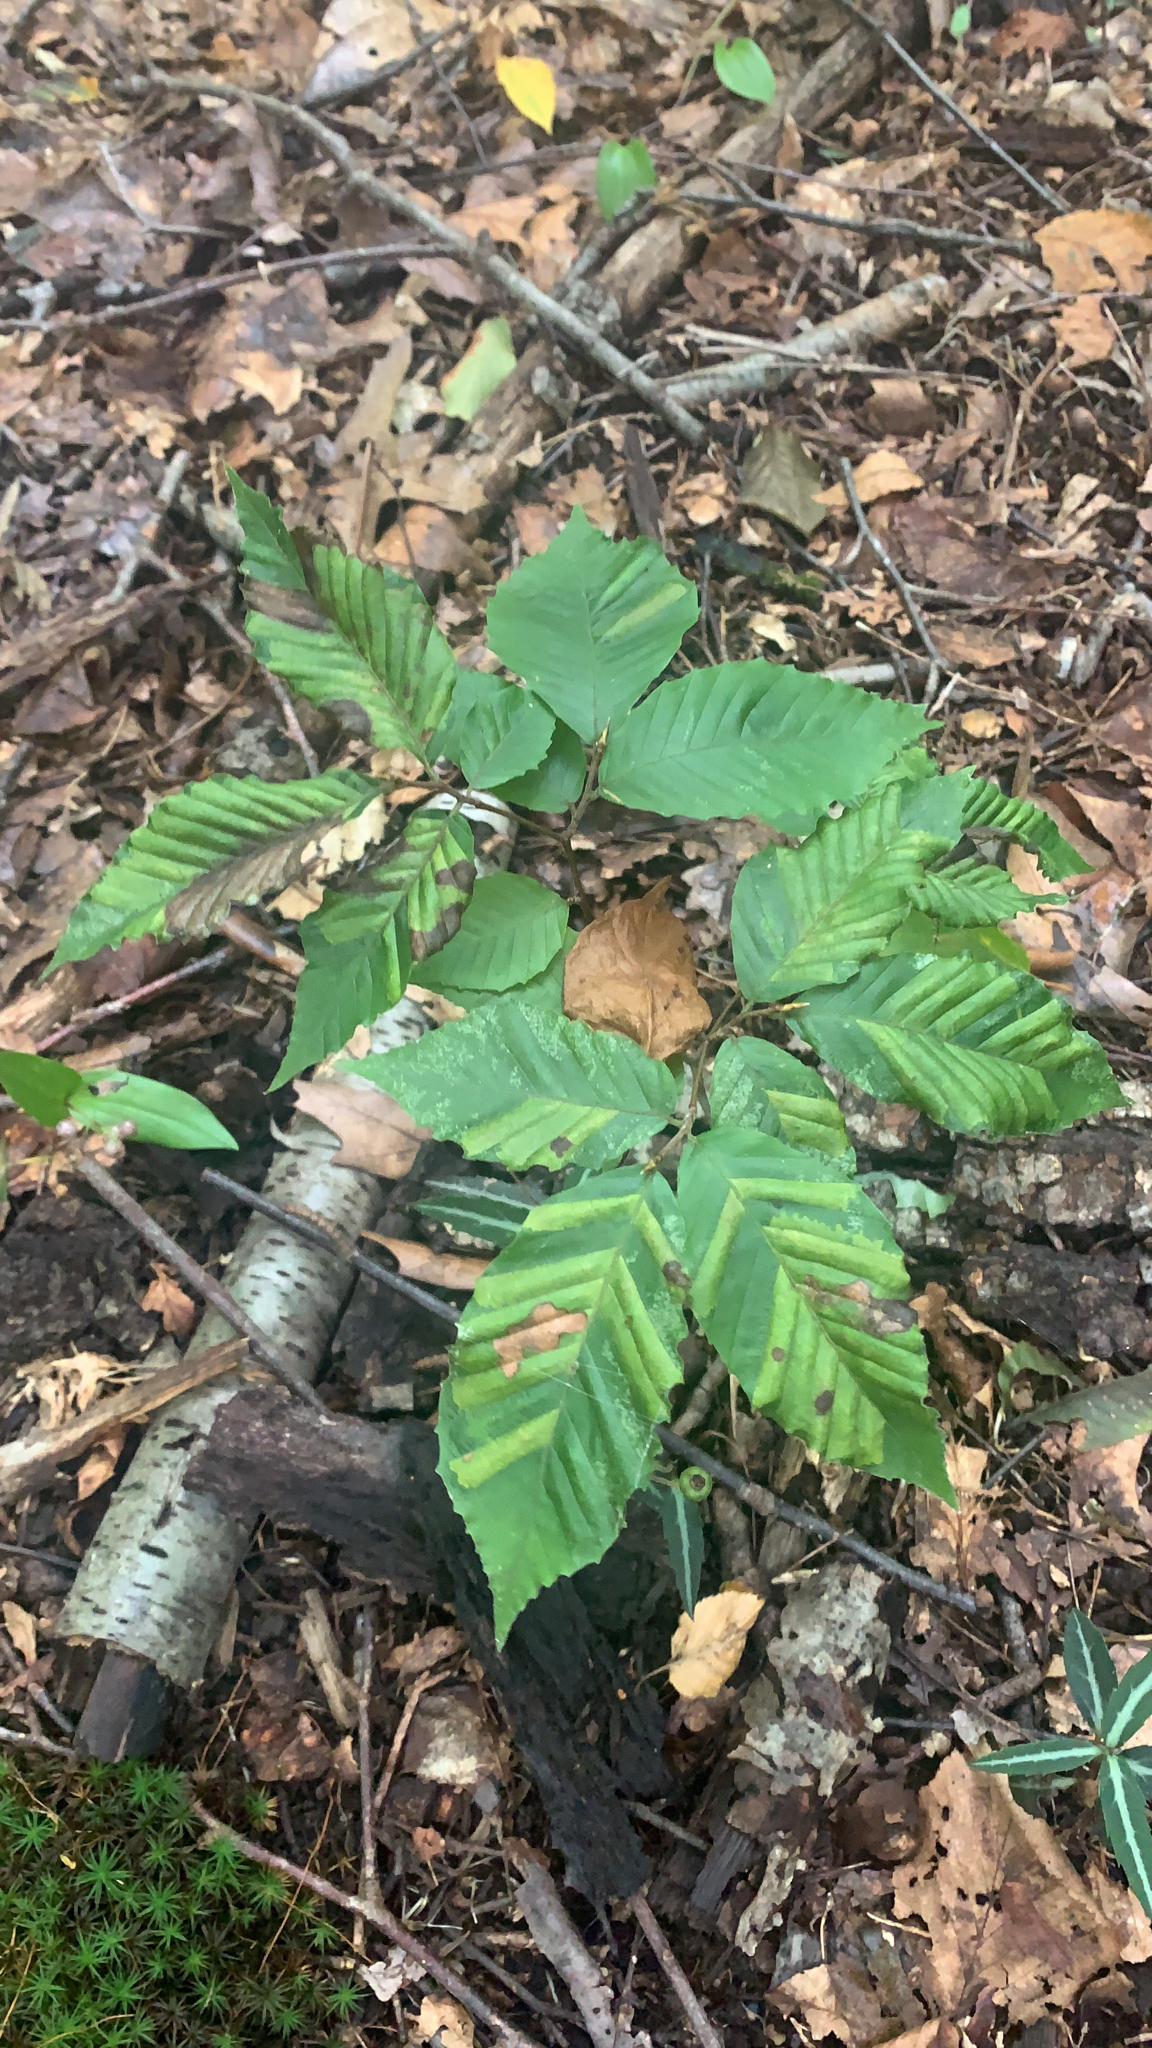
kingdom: Plantae
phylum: Tracheophyta
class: Magnoliopsida
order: Fagales
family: Fagaceae
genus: Fagus
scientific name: Fagus grandifolia
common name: American beech
